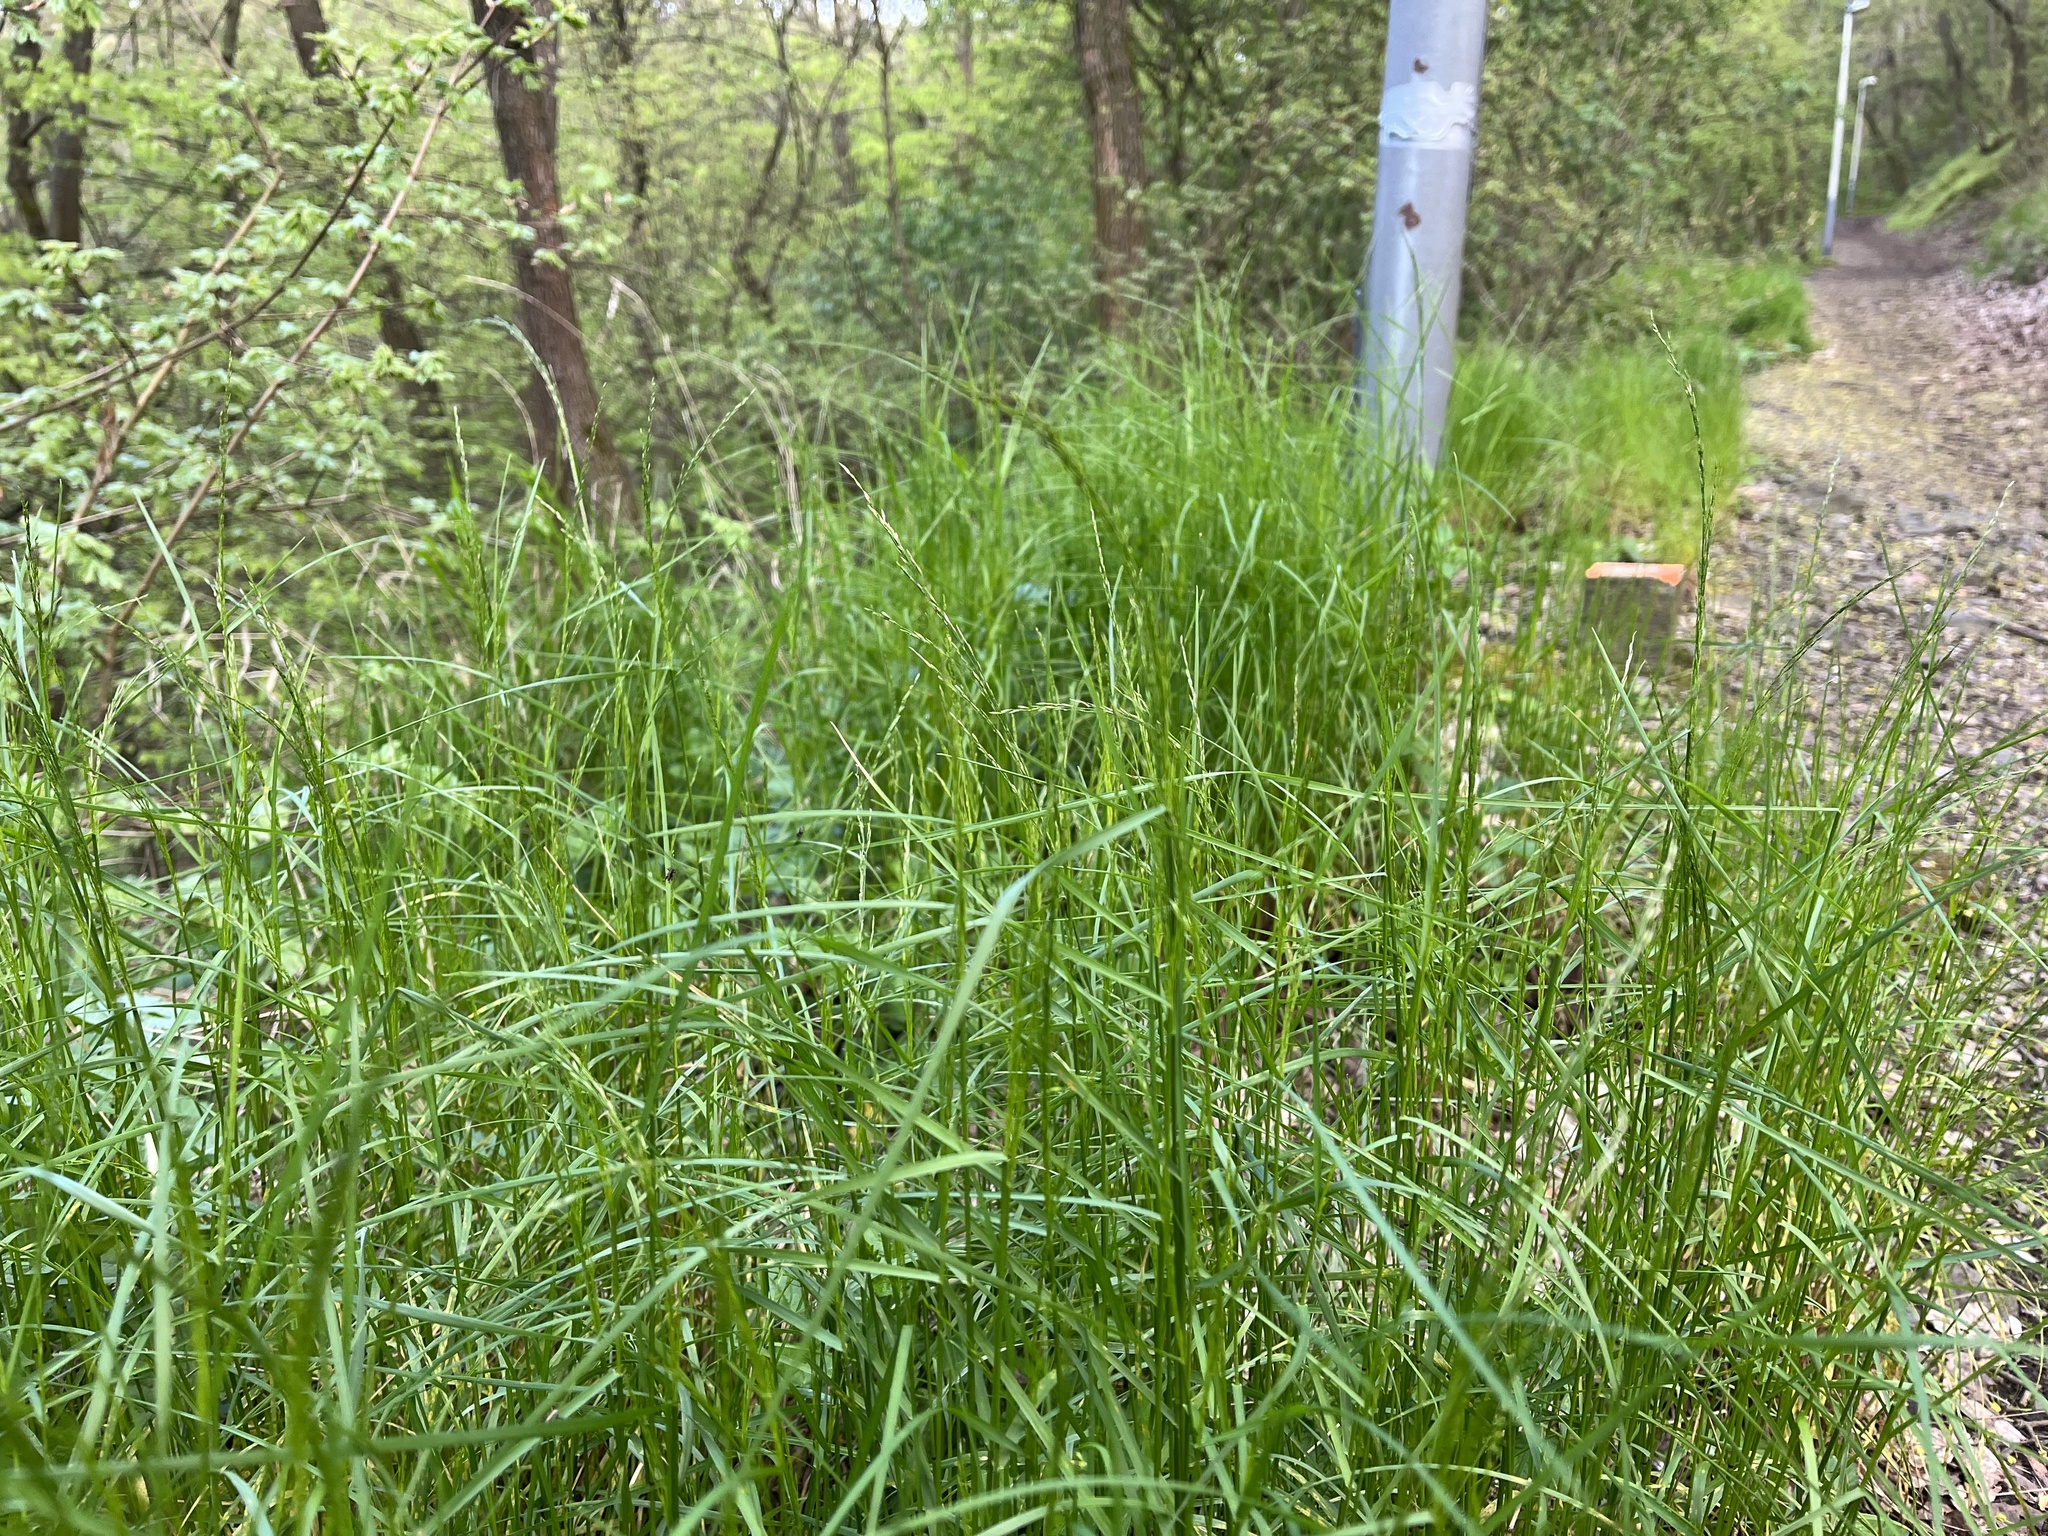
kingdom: Plantae
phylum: Tracheophyta
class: Liliopsida
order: Poales
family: Poaceae
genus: Poa
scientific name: Poa nemoralis
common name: Wood bluegrass
